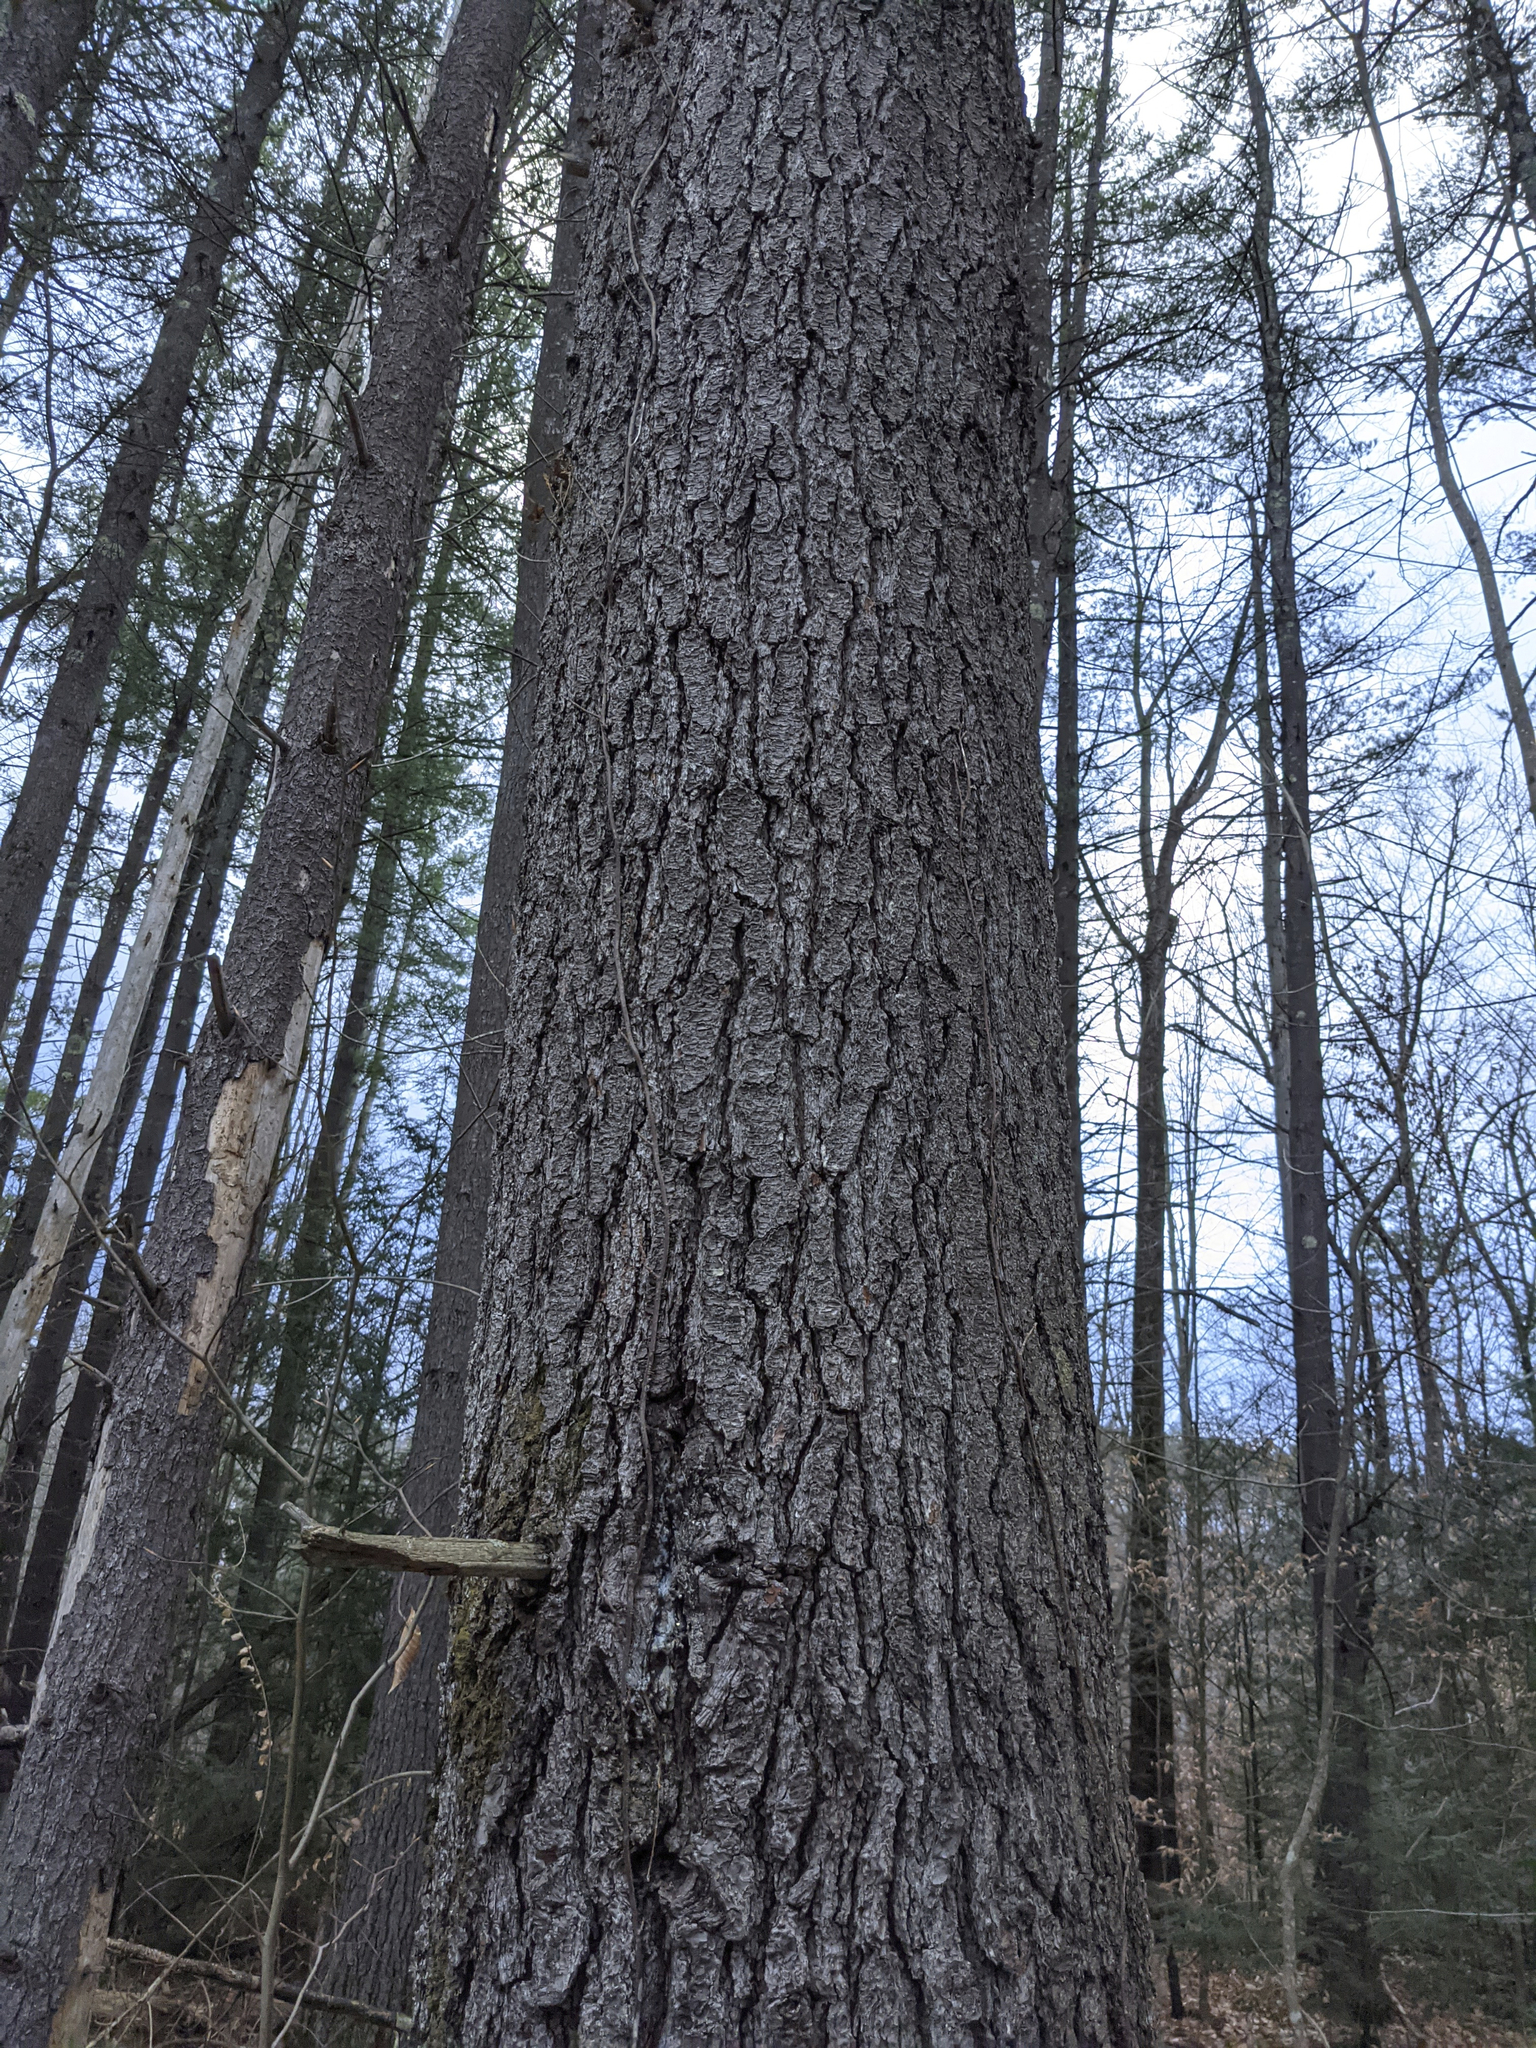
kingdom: Plantae
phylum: Tracheophyta
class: Pinopsida
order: Pinales
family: Pinaceae
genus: Pinus
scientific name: Pinus strobus
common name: Weymouth pine
